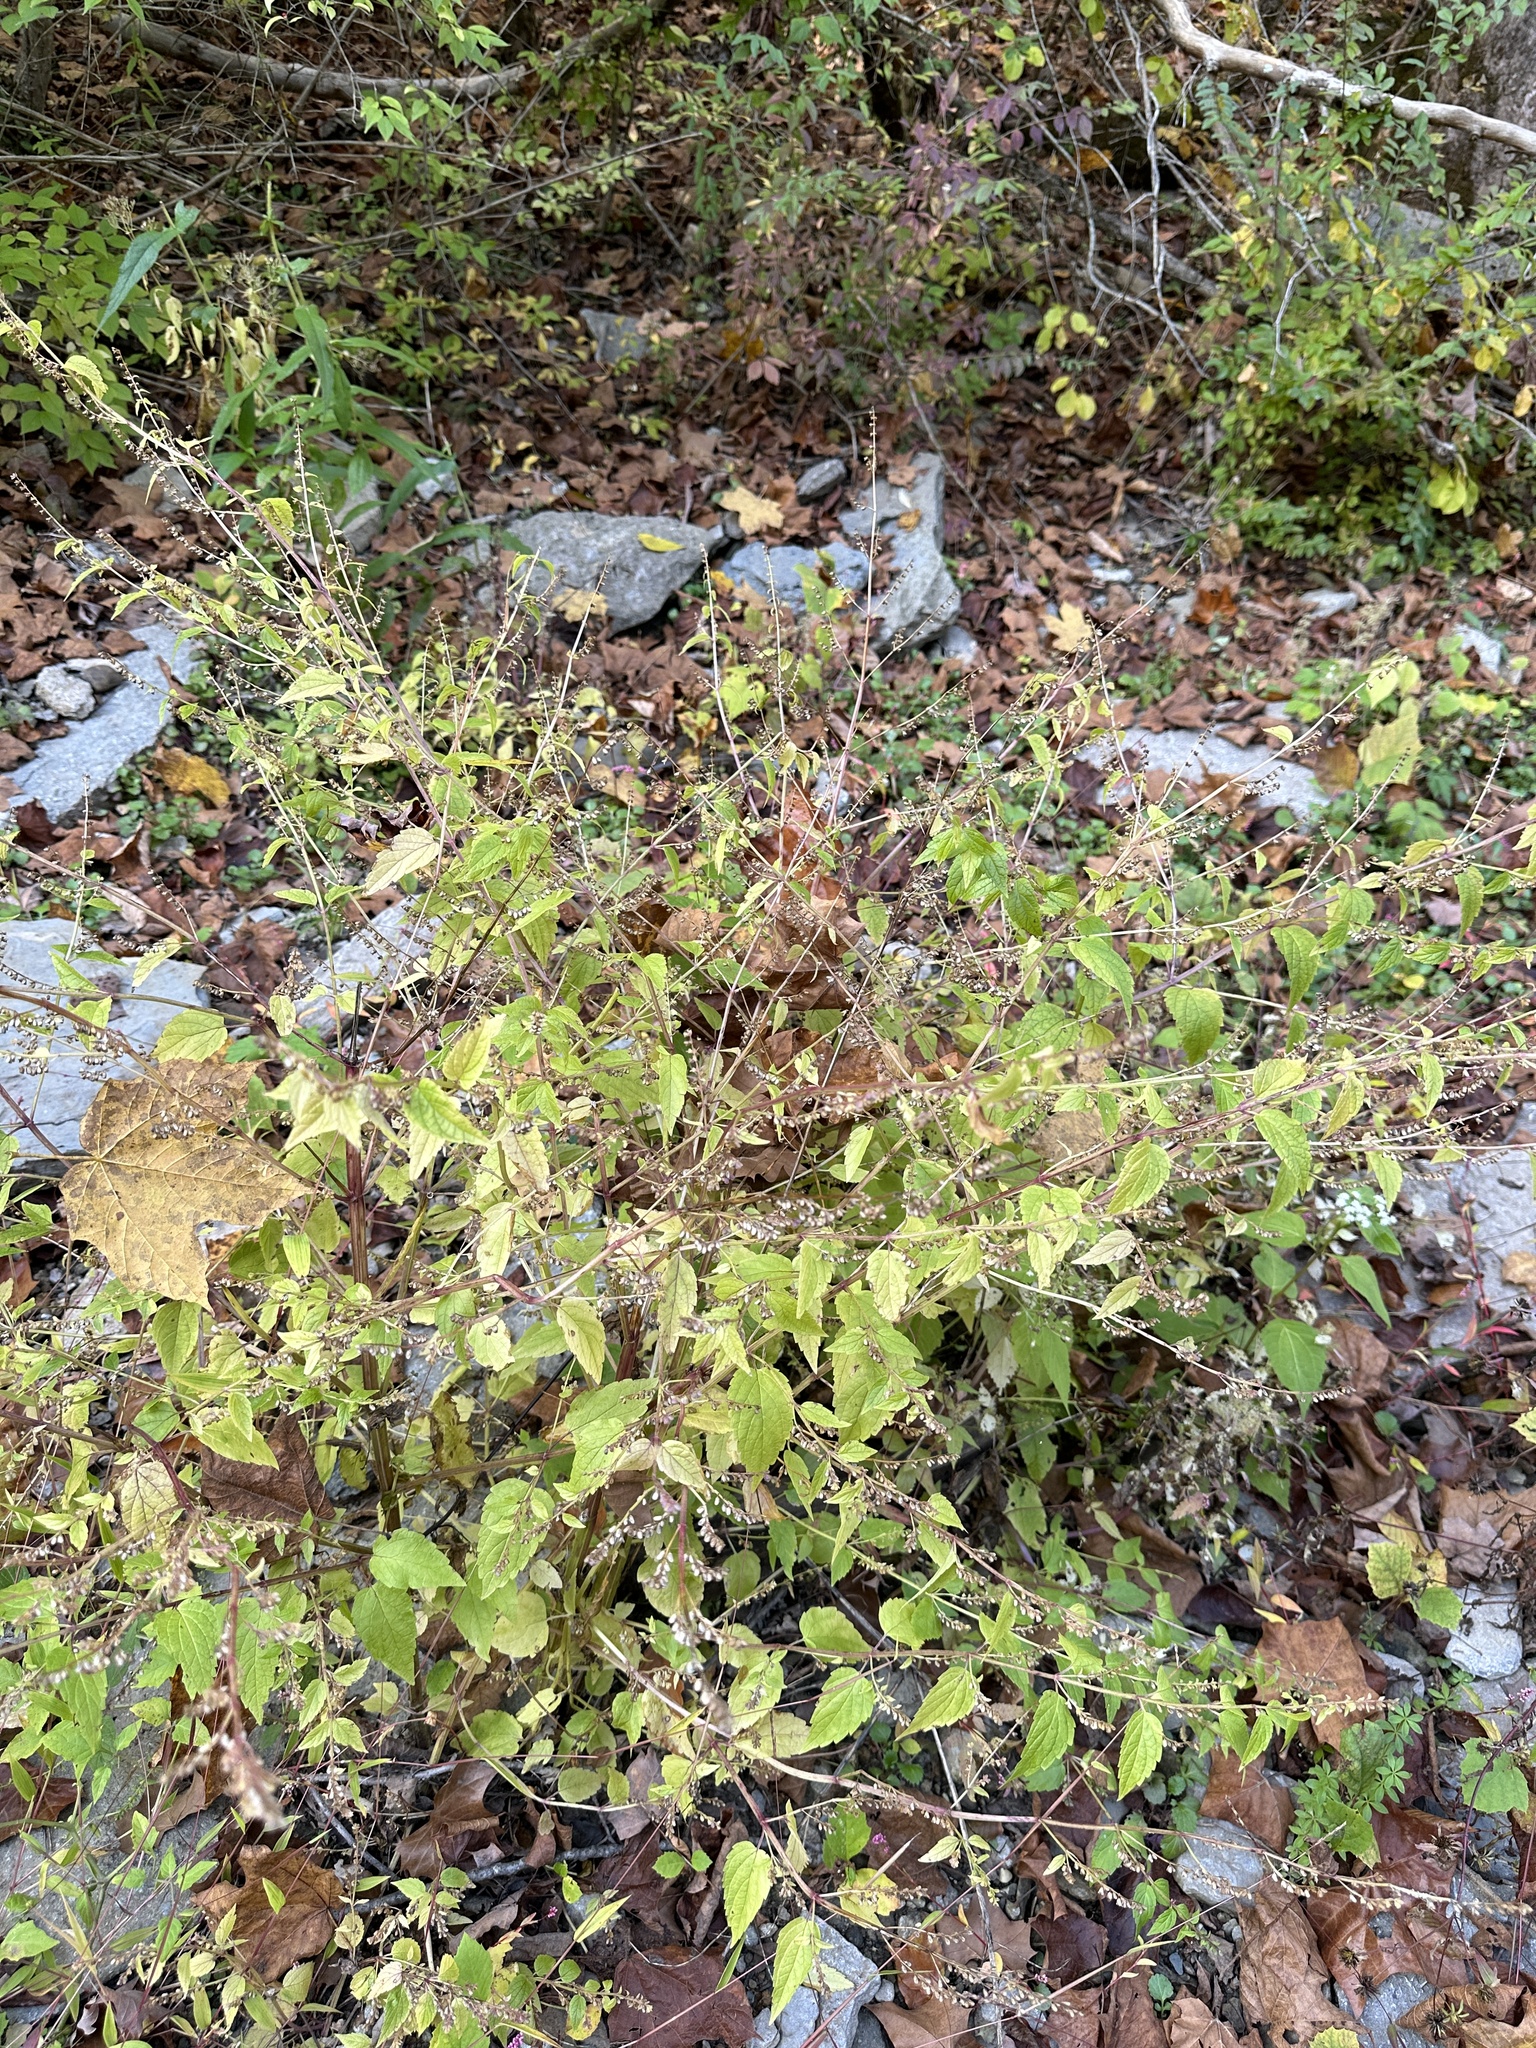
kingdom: Plantae
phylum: Tracheophyta
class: Magnoliopsida
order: Lamiales
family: Lamiaceae
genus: Scutellaria
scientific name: Scutellaria lateriflora
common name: Blue skullcap
